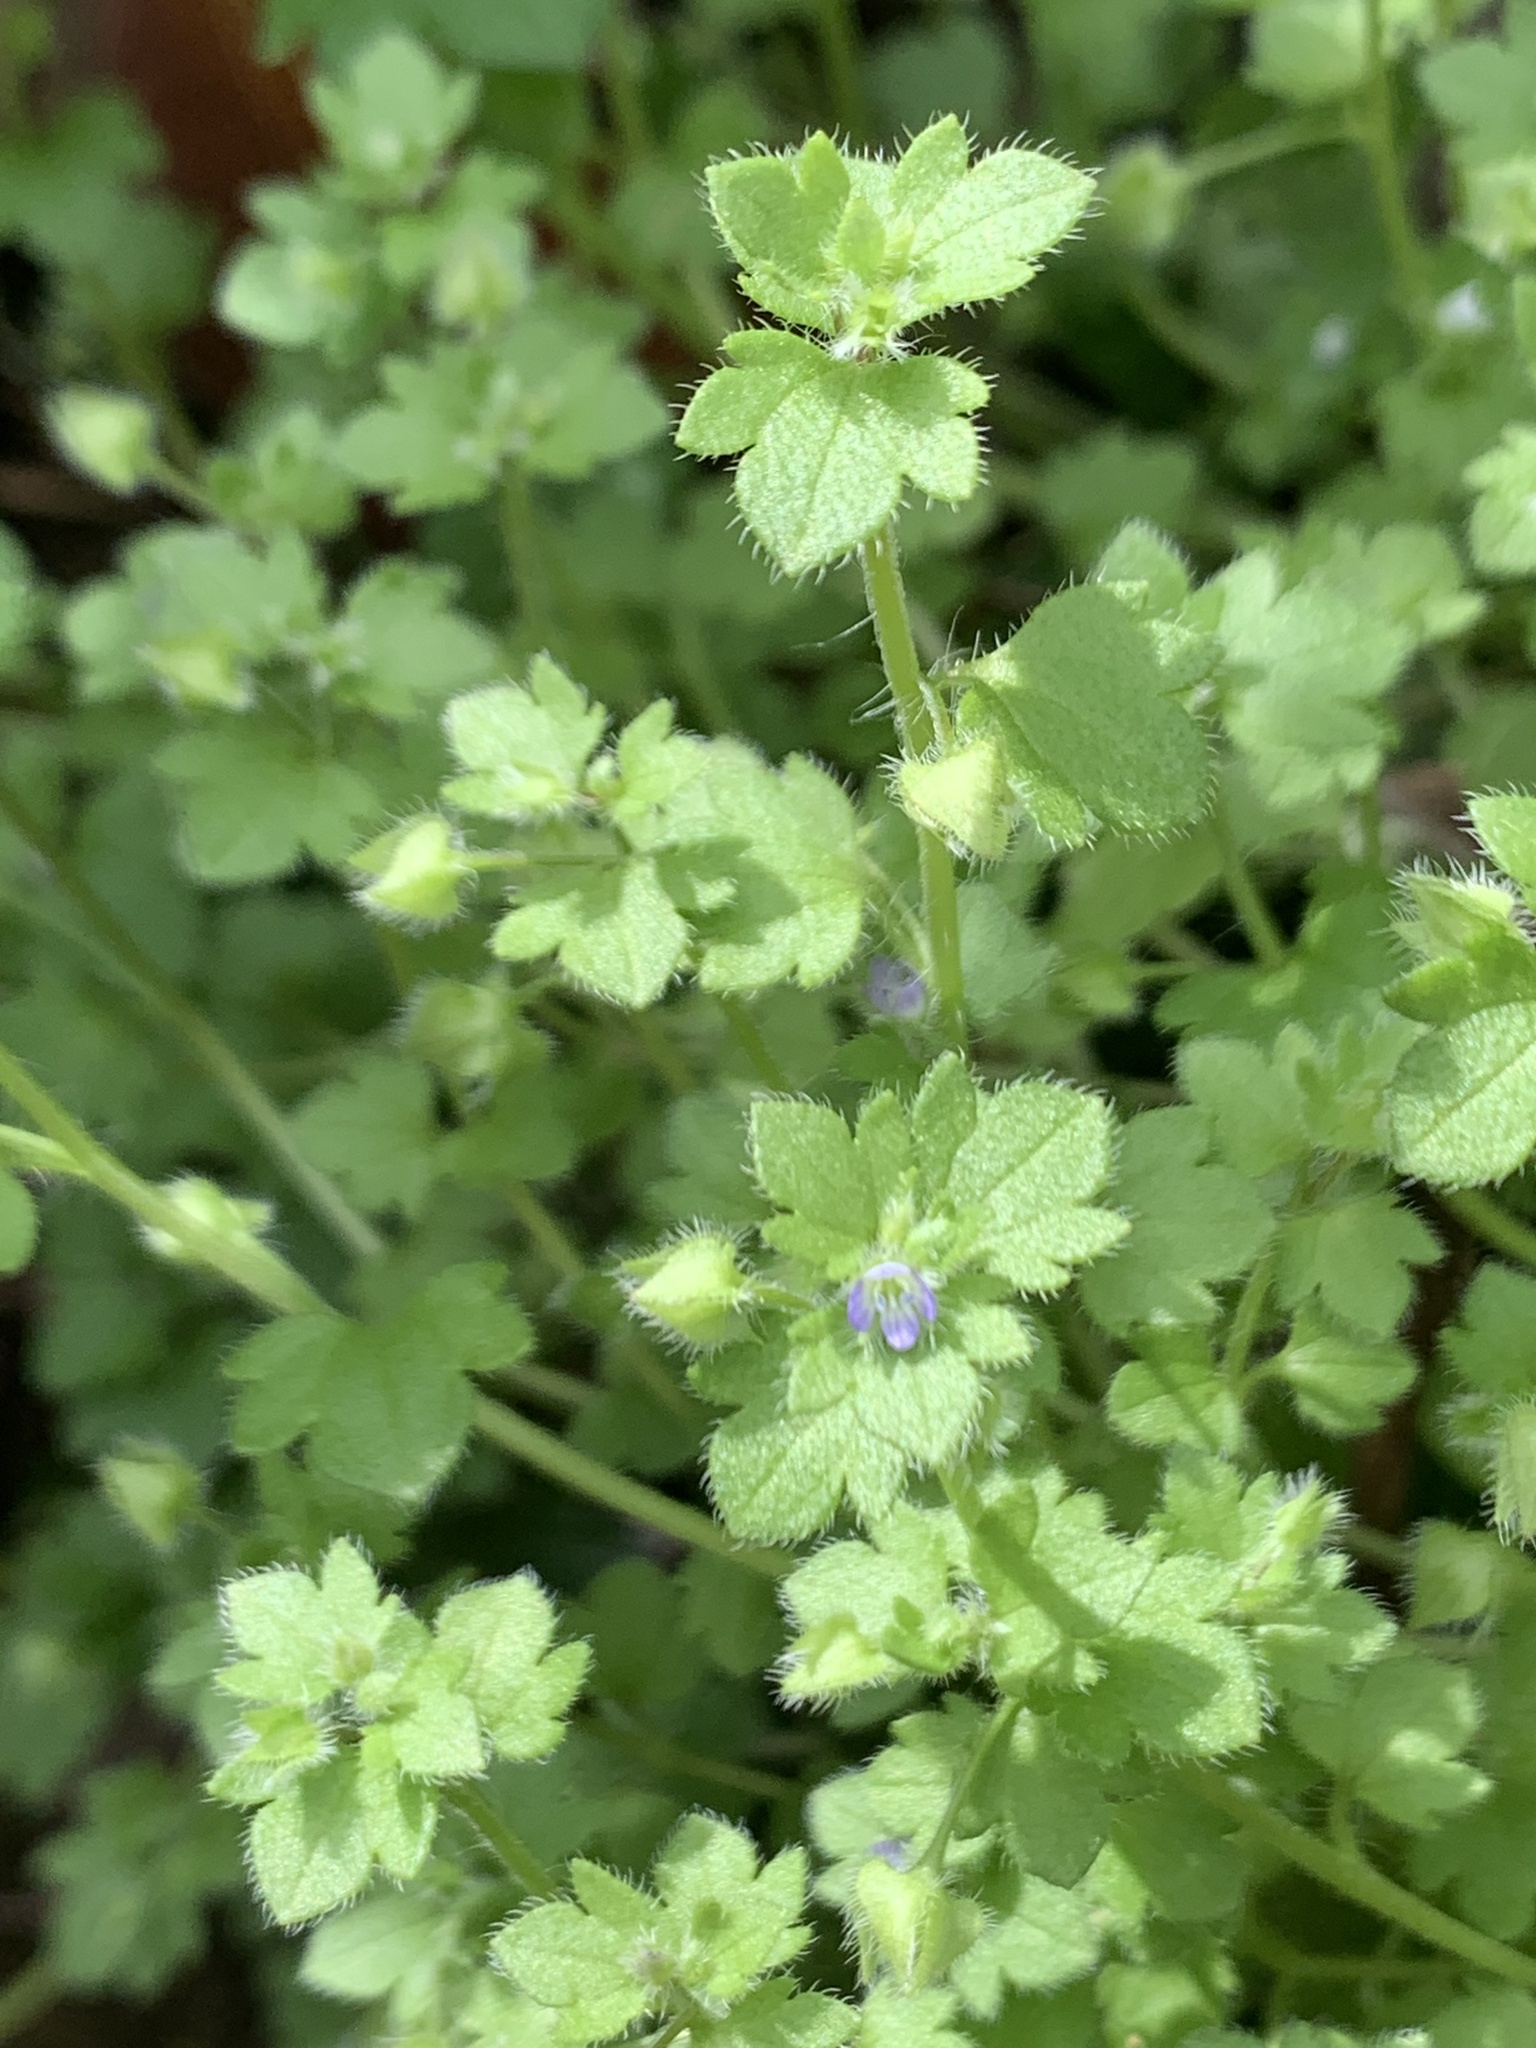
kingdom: Plantae
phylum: Tracheophyta
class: Magnoliopsida
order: Lamiales
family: Plantaginaceae
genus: Veronica
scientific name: Veronica hederifolia
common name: Ivy-leaved speedwell
